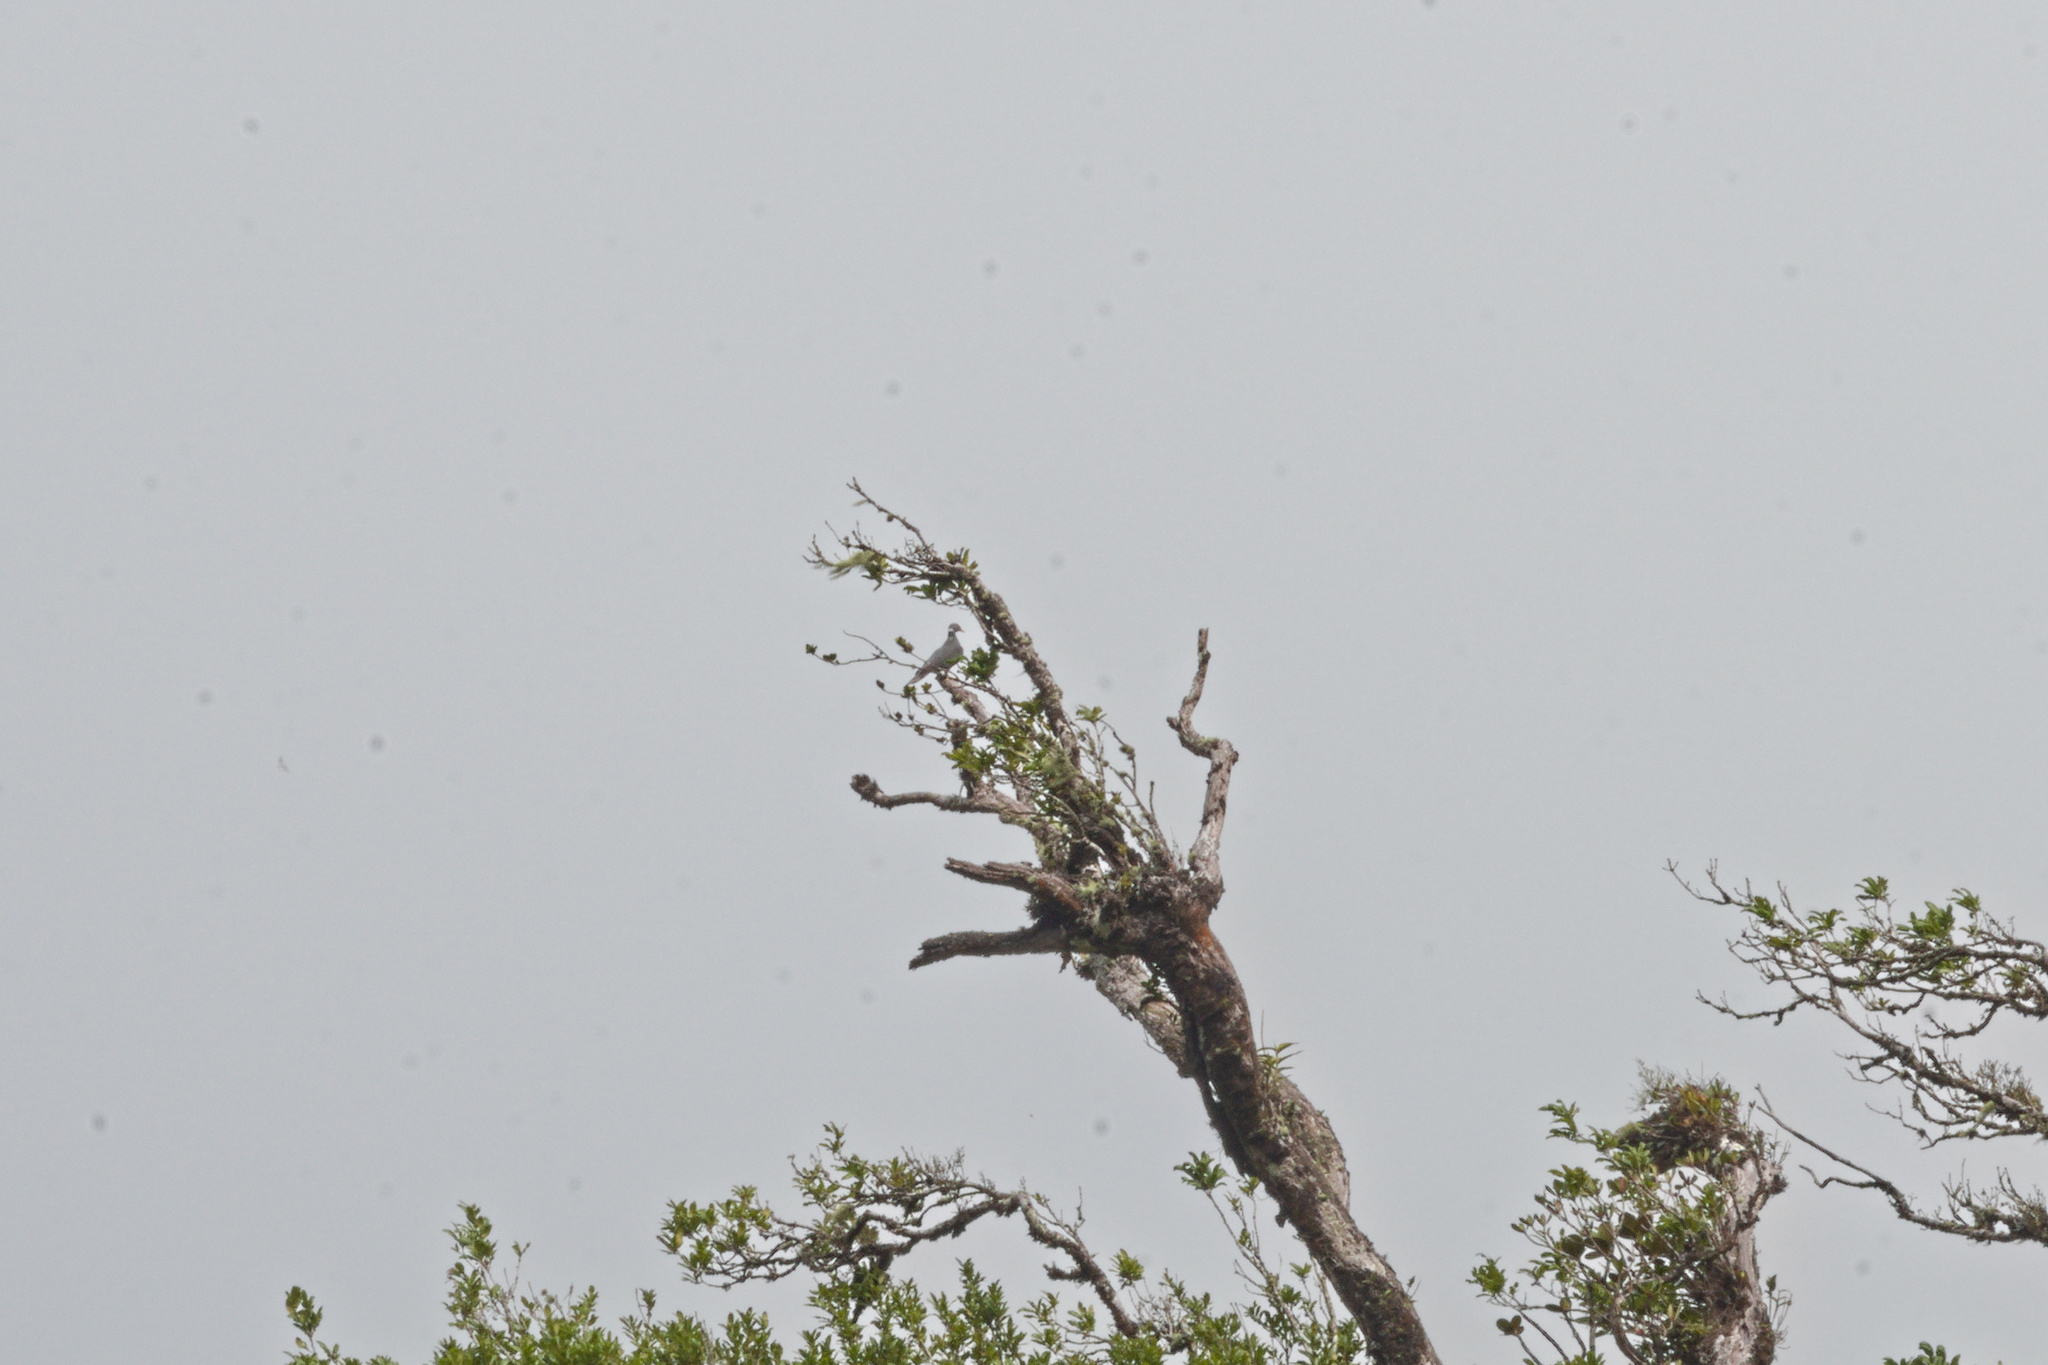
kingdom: Animalia
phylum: Chordata
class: Aves
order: Columbiformes
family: Columbidae
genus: Patagioenas
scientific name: Patagioenas fasciata
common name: Band-tailed pigeon
